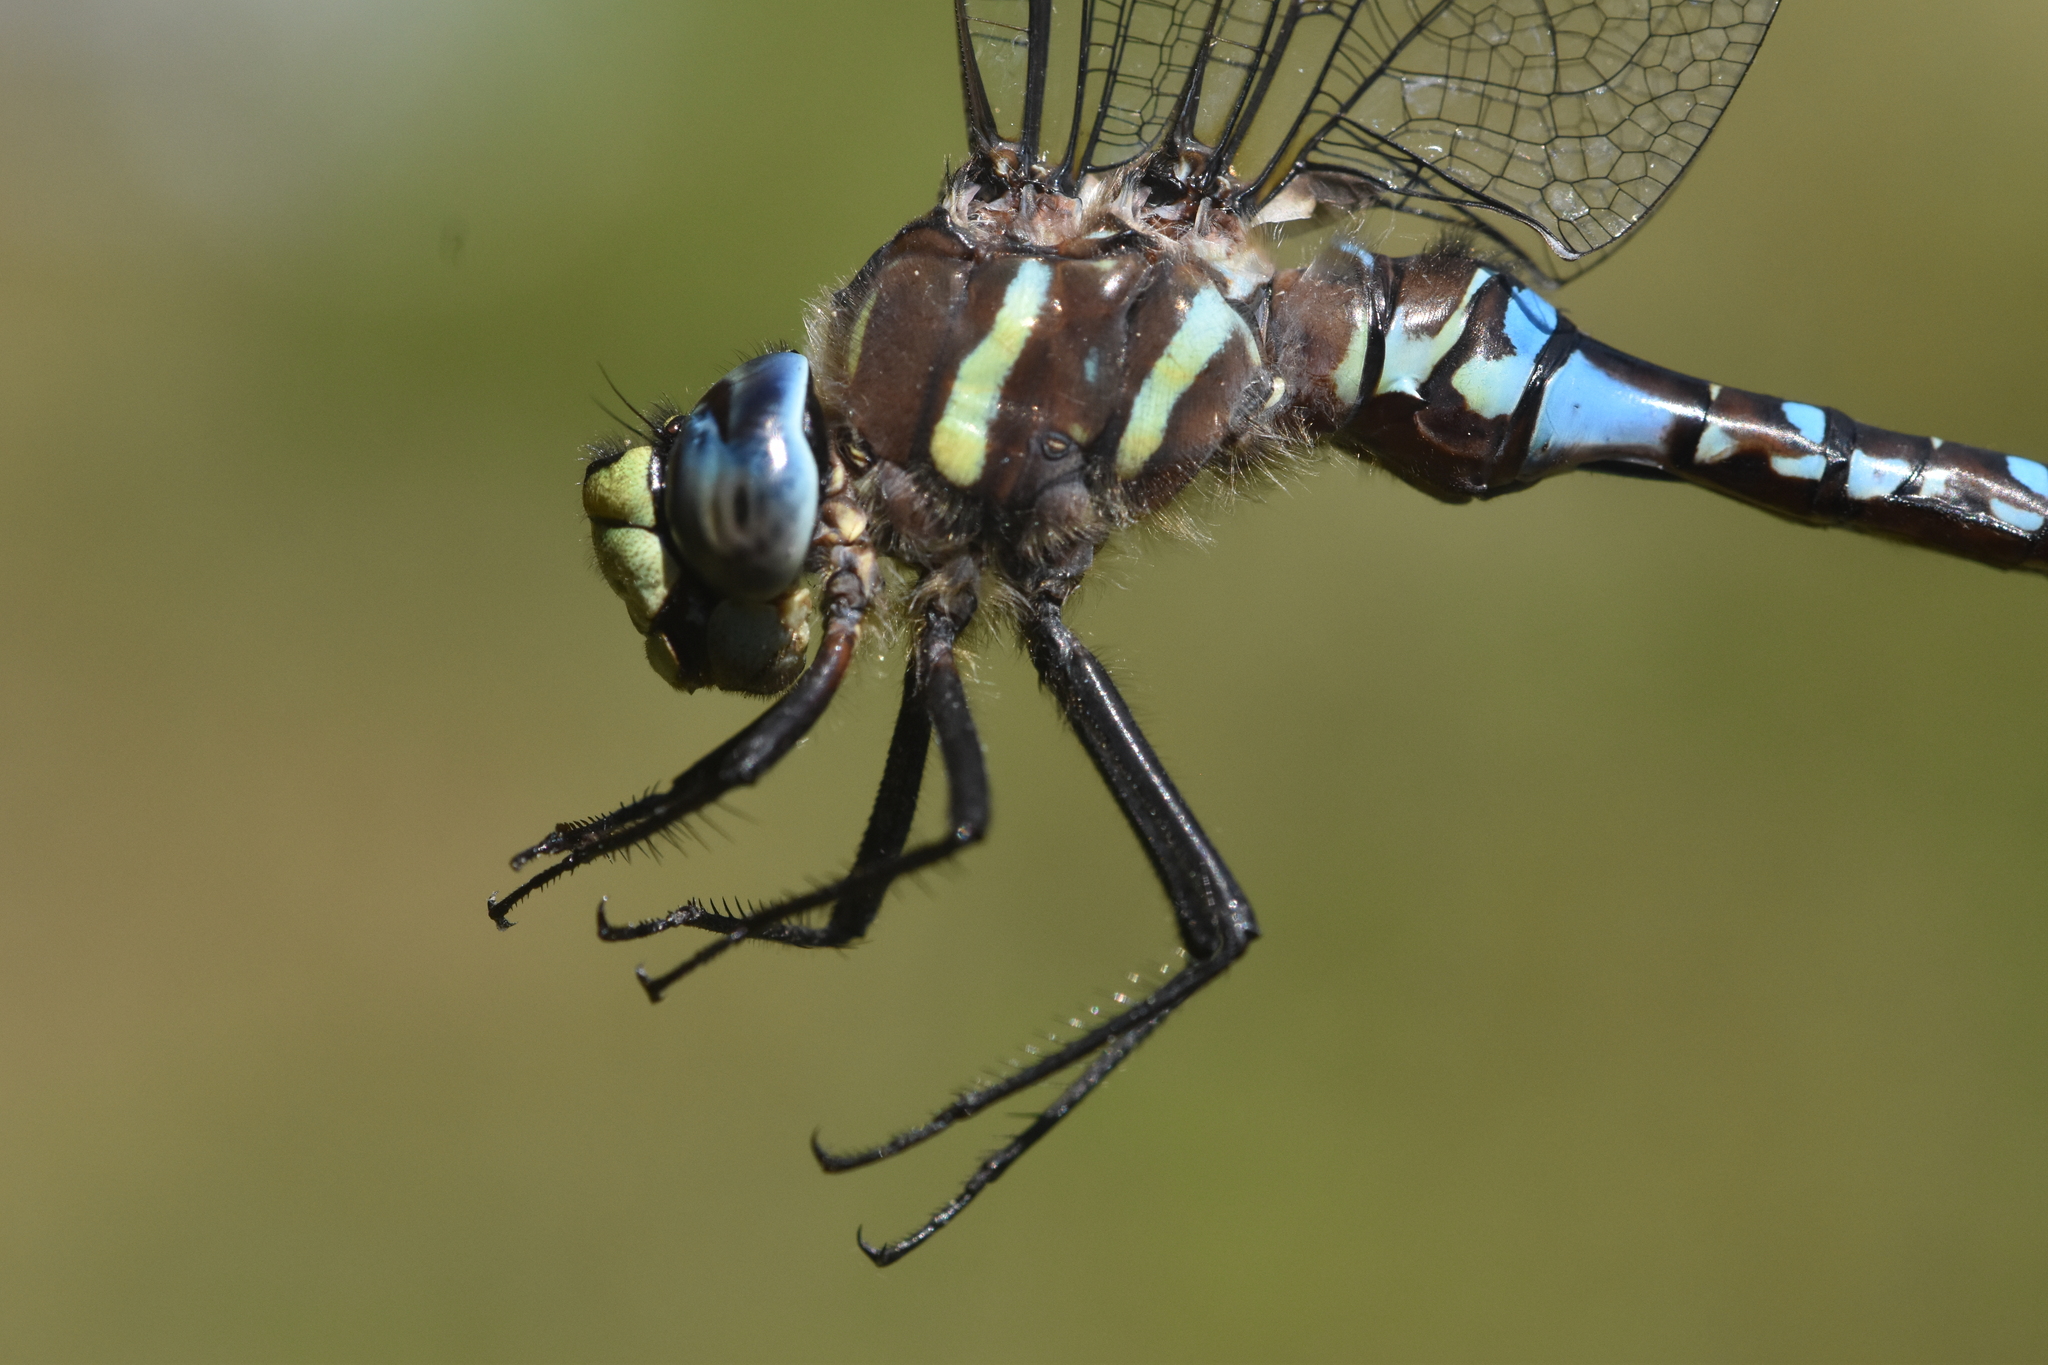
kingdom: Animalia
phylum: Arthropoda
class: Insecta
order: Odonata
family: Aeshnidae
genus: Aeshna
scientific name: Aeshna palmata
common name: Paddle-tailed darner
